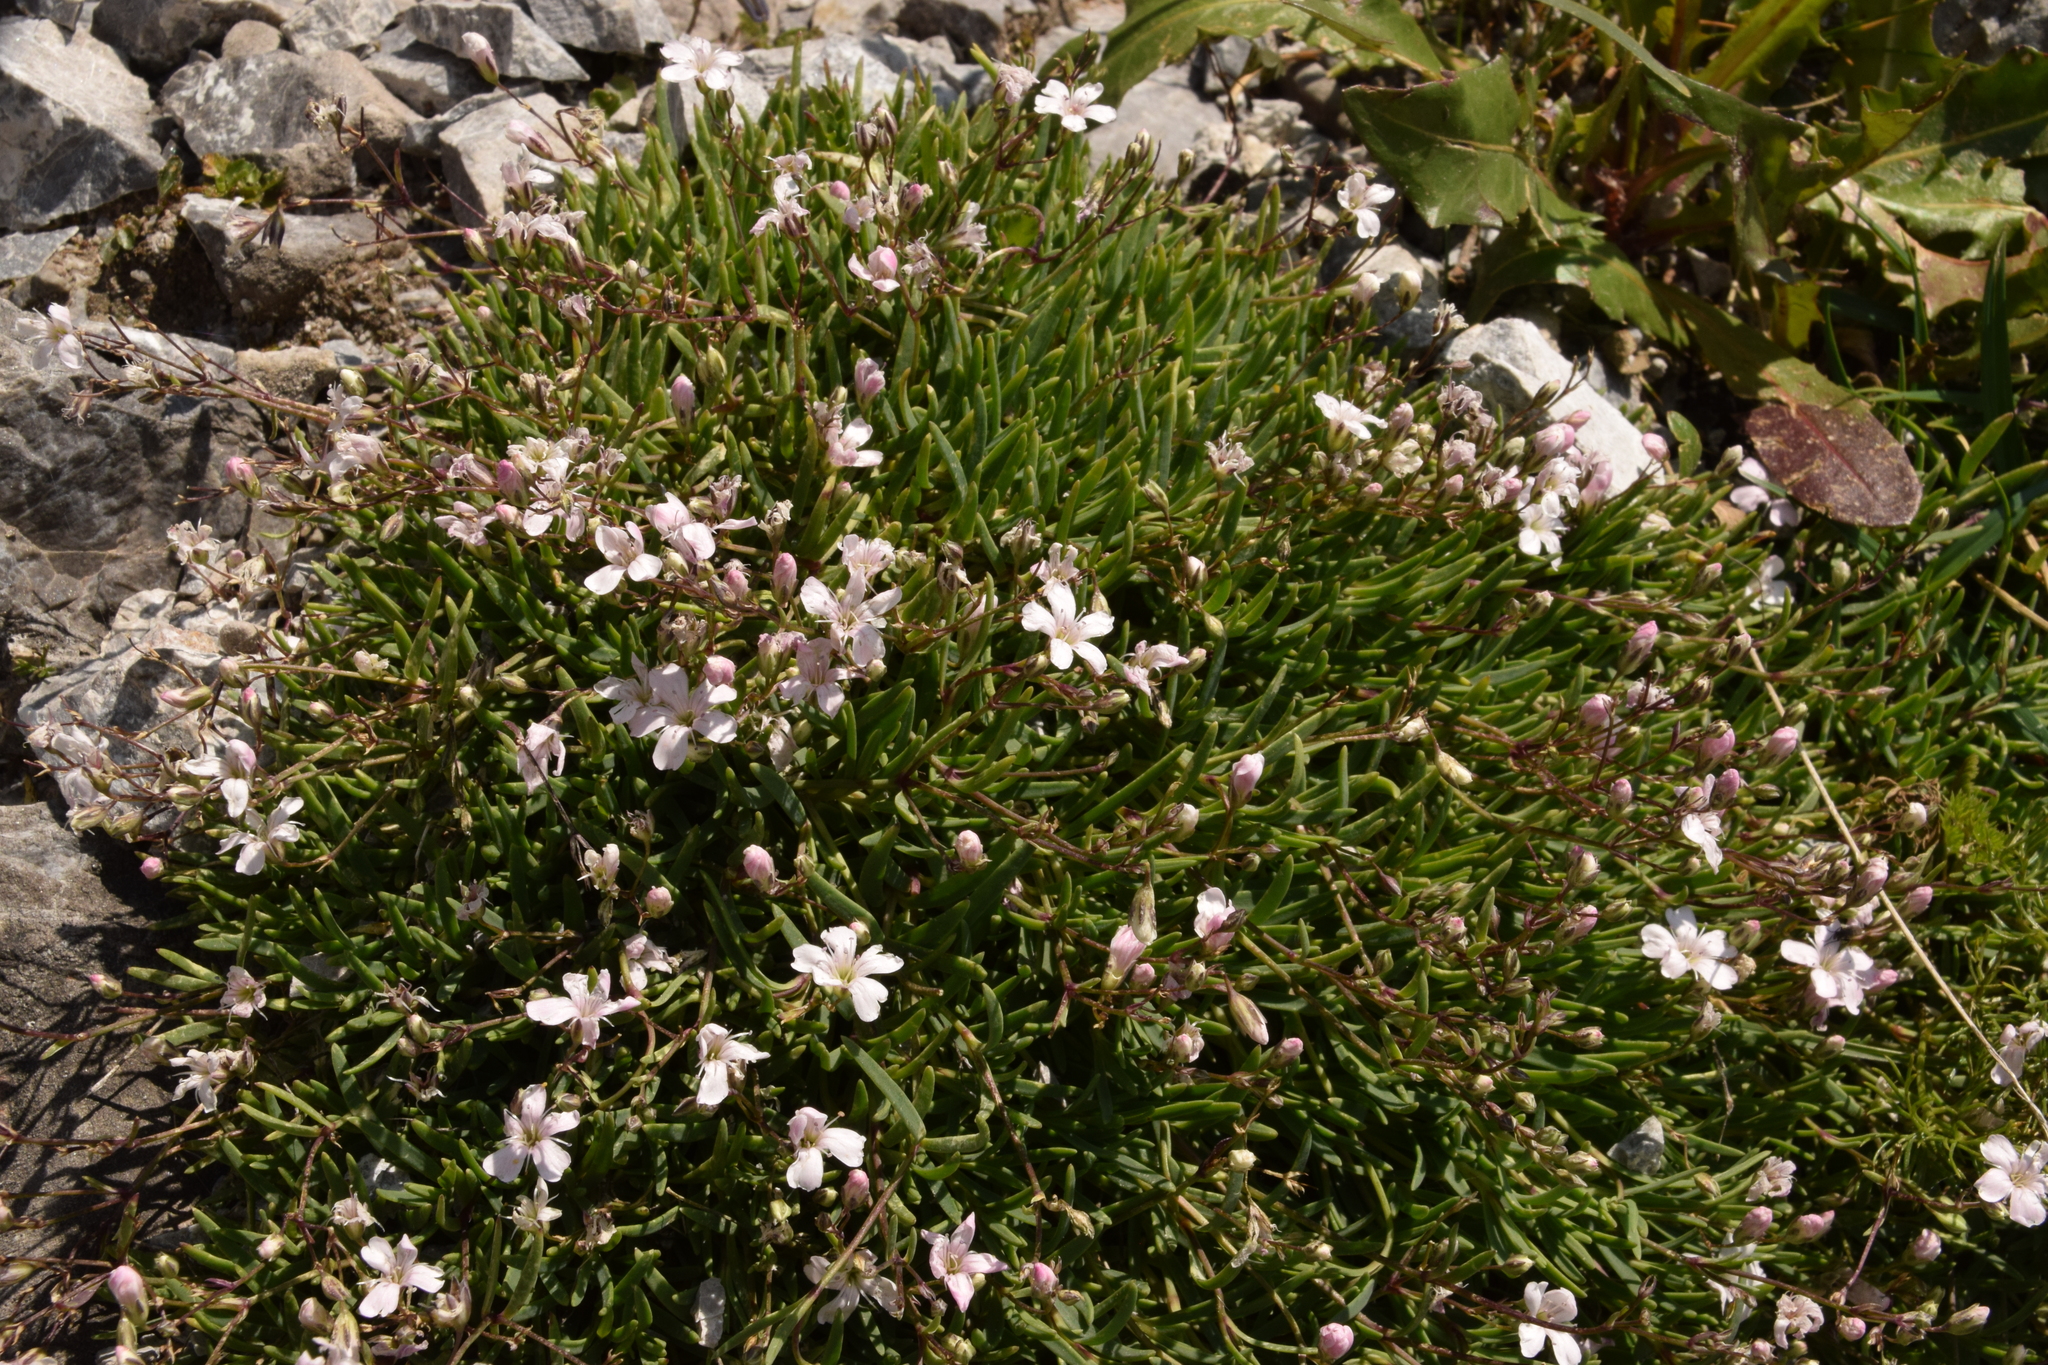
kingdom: Plantae
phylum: Tracheophyta
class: Magnoliopsida
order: Caryophyllales
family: Caryophyllaceae
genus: Gypsophila
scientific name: Gypsophila repens
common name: Creeping baby's-breath
